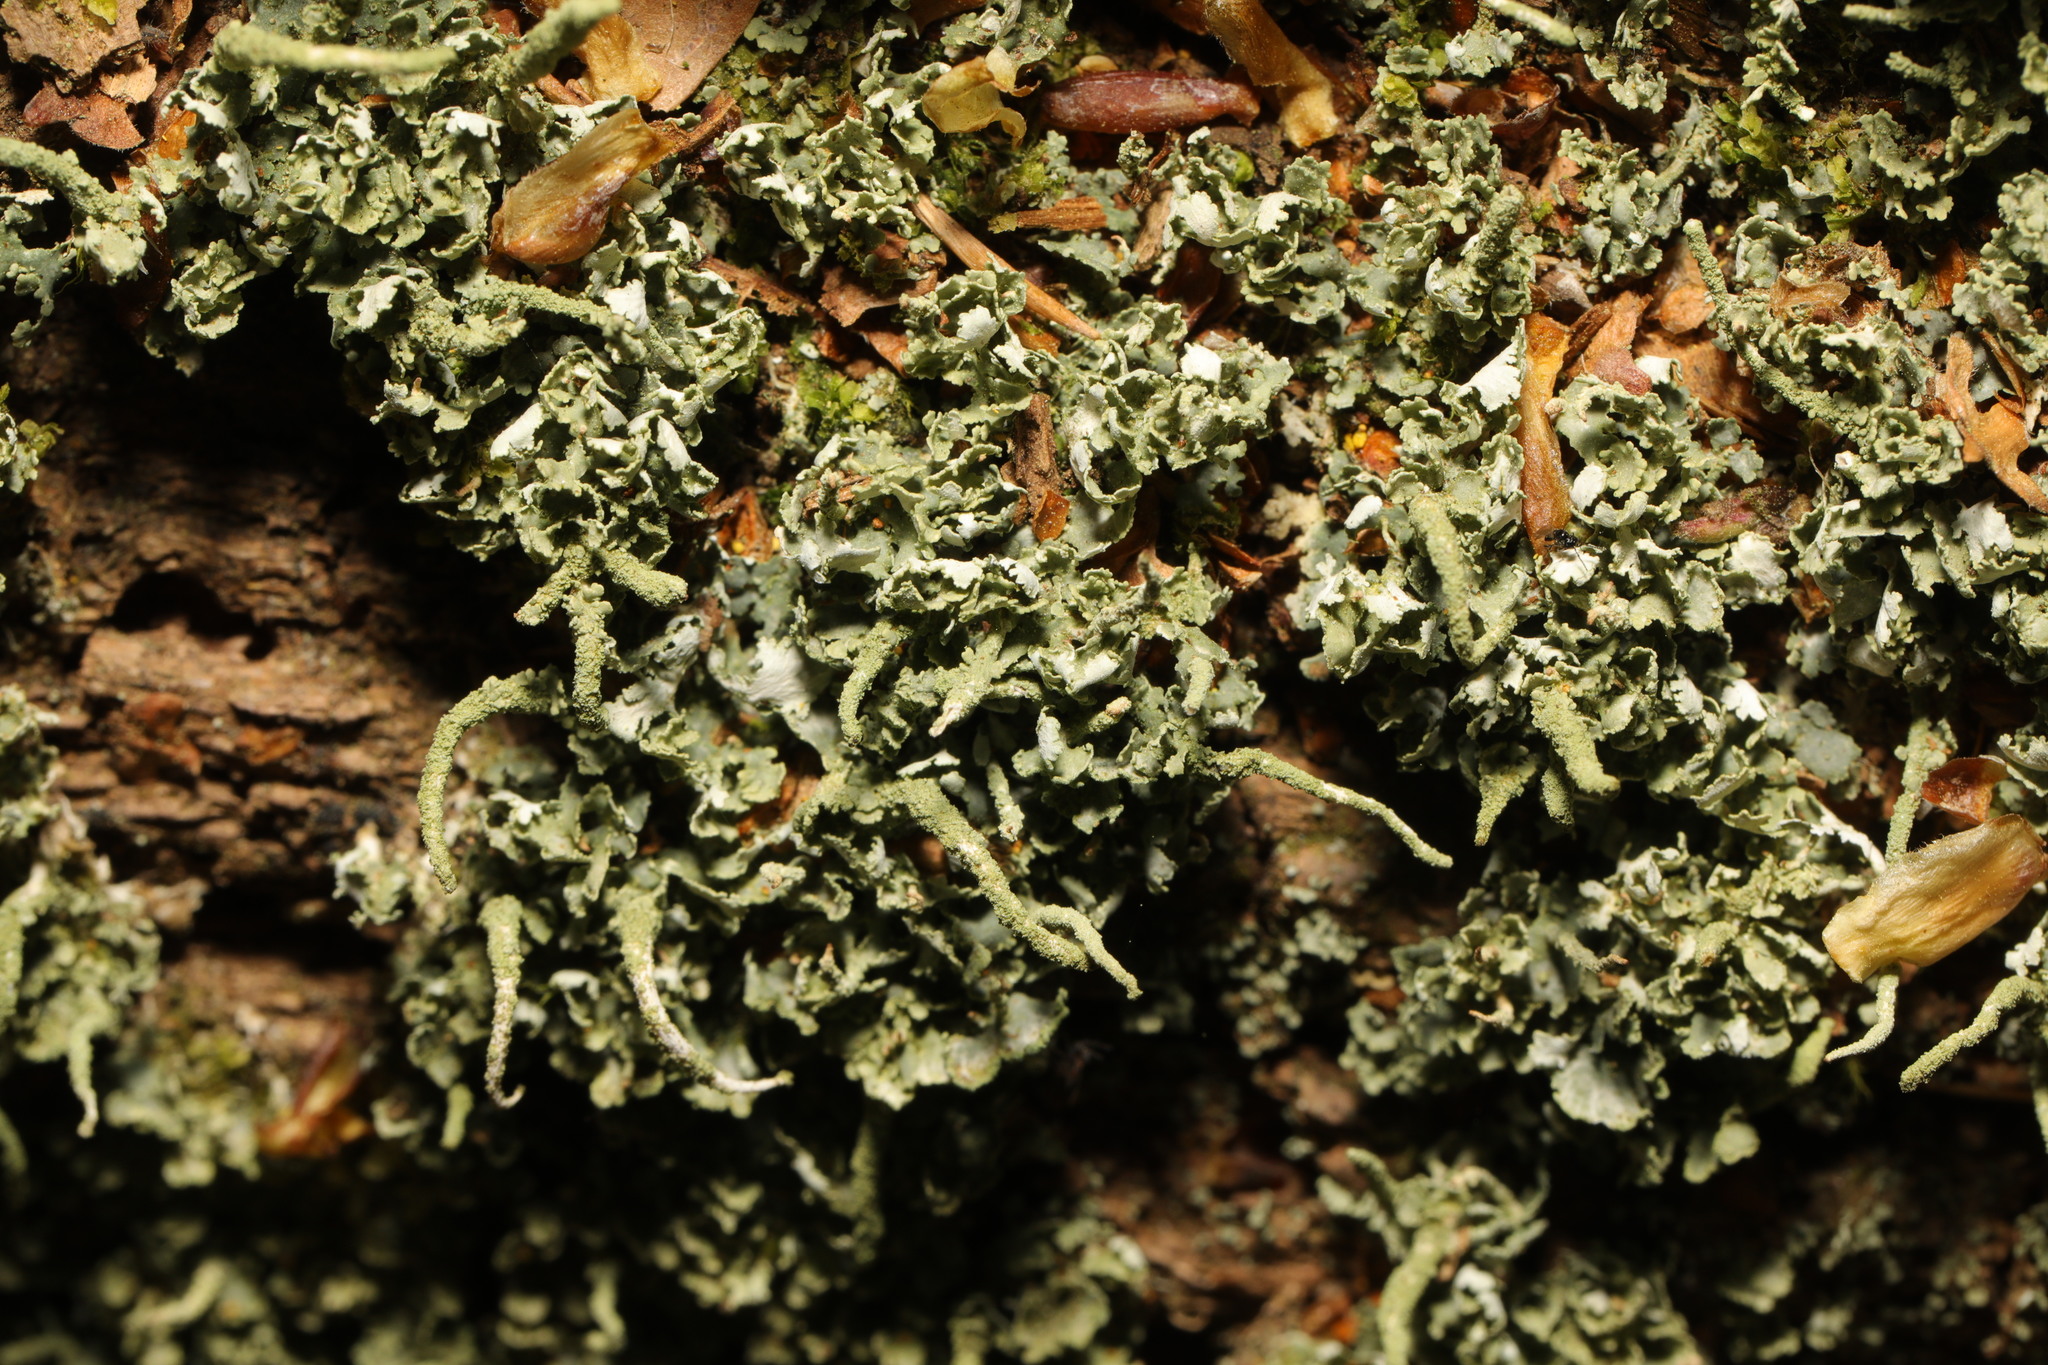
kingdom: Fungi
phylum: Ascomycota
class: Lecanoromycetes
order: Lecanorales
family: Cladoniaceae
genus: Cladonia
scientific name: Cladonia coniocraea
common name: Common powderhorn
